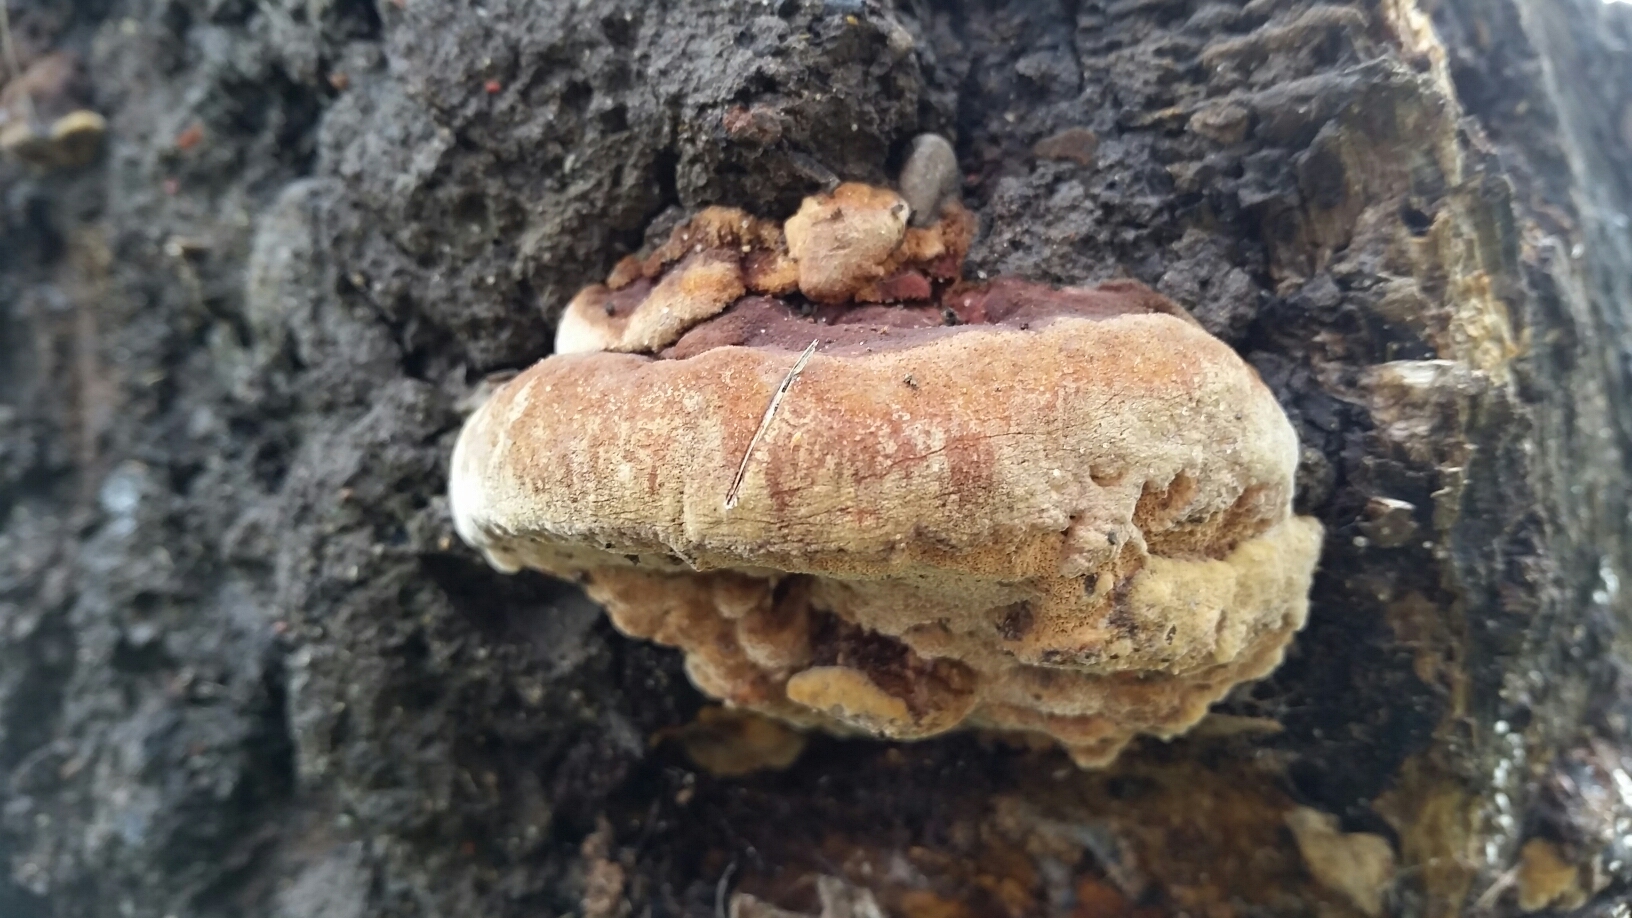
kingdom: Fungi
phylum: Basidiomycota
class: Agaricomycetes
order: Hymenochaetales
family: Hymenochaetaceae
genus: Phellinus
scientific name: Phellinus gilvus
